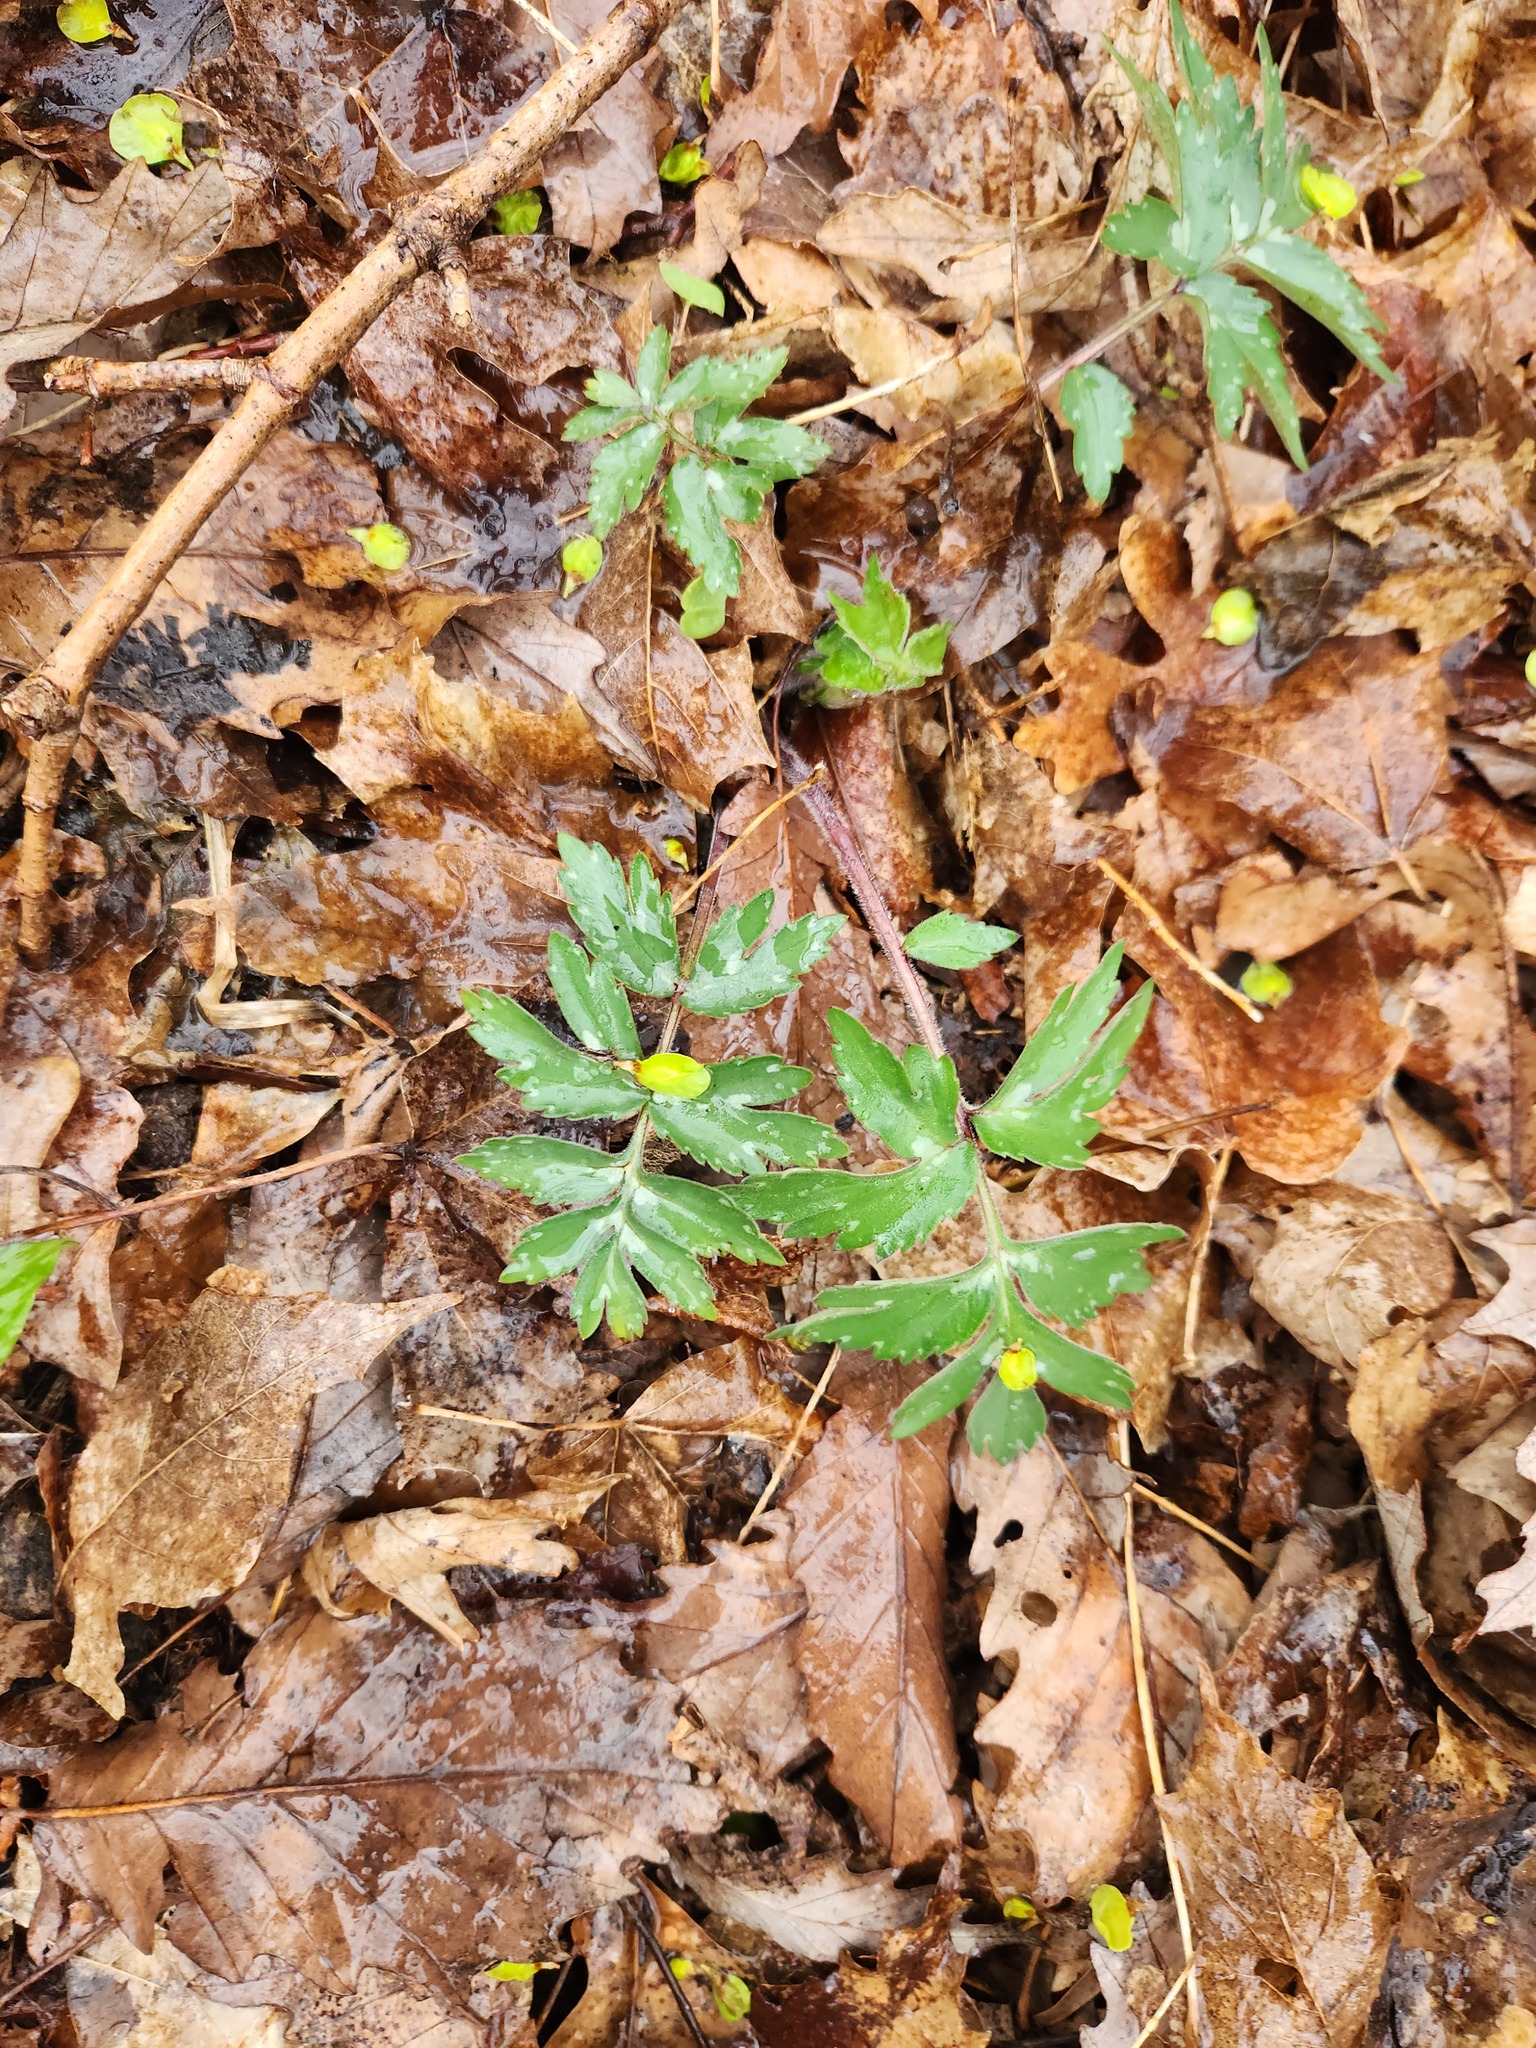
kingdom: Plantae
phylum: Tracheophyta
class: Magnoliopsida
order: Boraginales
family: Hydrophyllaceae
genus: Hydrophyllum
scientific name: Hydrophyllum virginianum
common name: Virginia waterleaf
